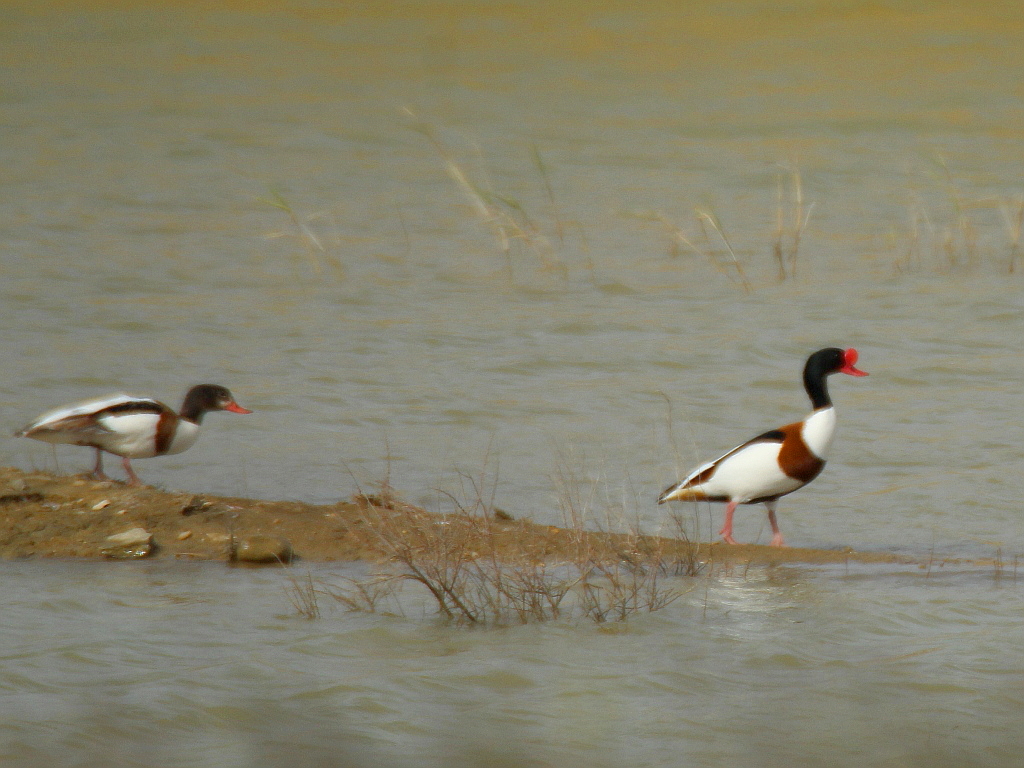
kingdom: Animalia
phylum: Chordata
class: Aves
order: Anseriformes
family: Anatidae
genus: Tadorna
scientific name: Tadorna tadorna
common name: Common shelduck
